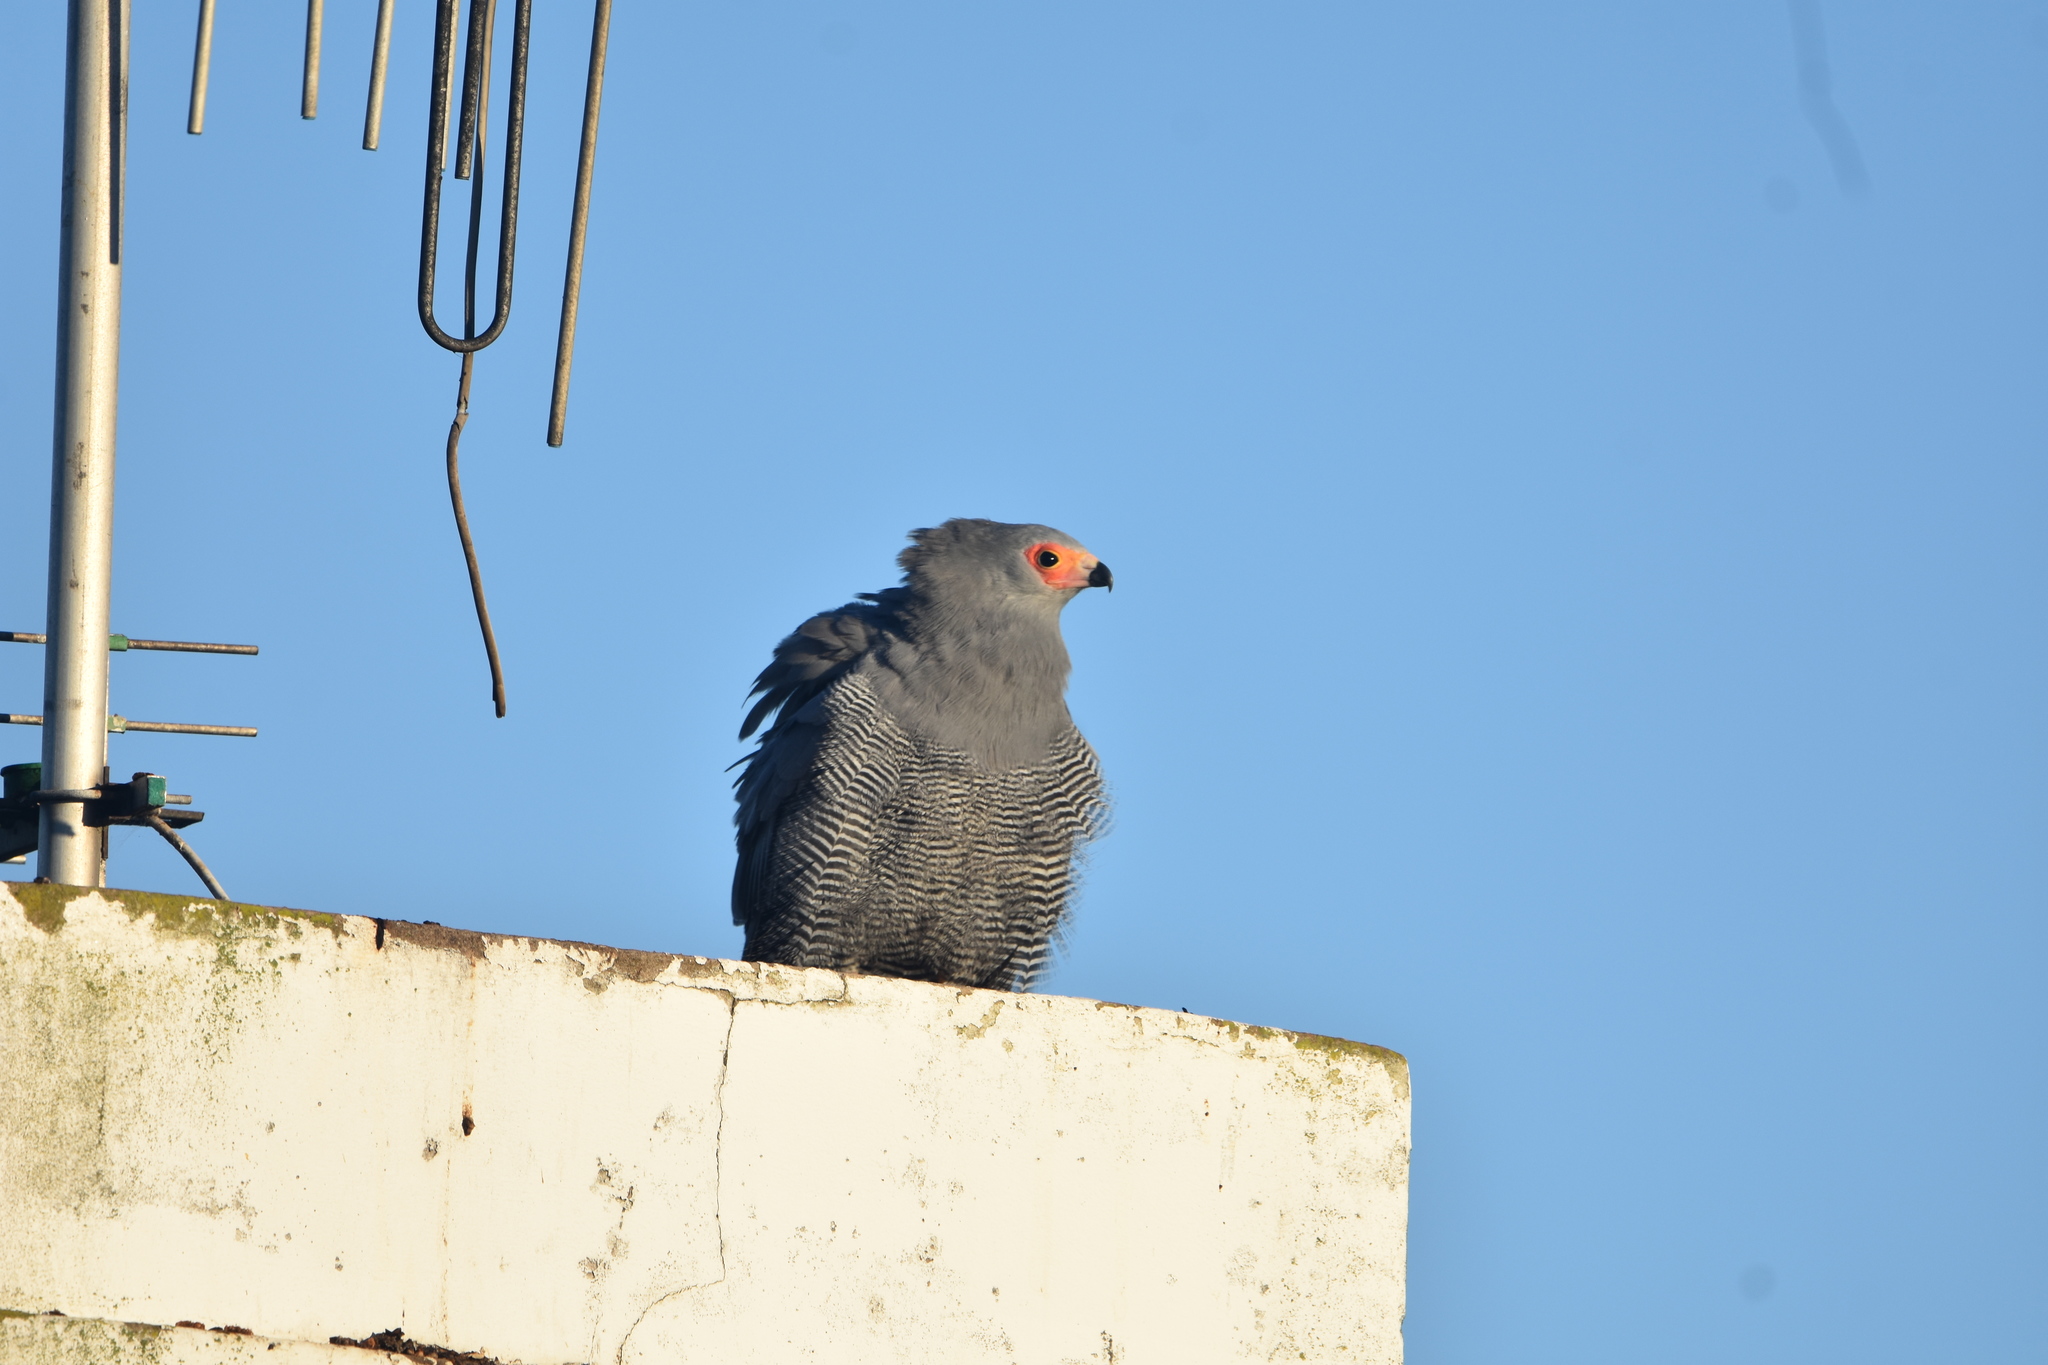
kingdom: Animalia
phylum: Chordata
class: Aves
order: Accipitriformes
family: Accipitridae
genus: Polyboroides
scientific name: Polyboroides typus
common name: African harrier-hawk
